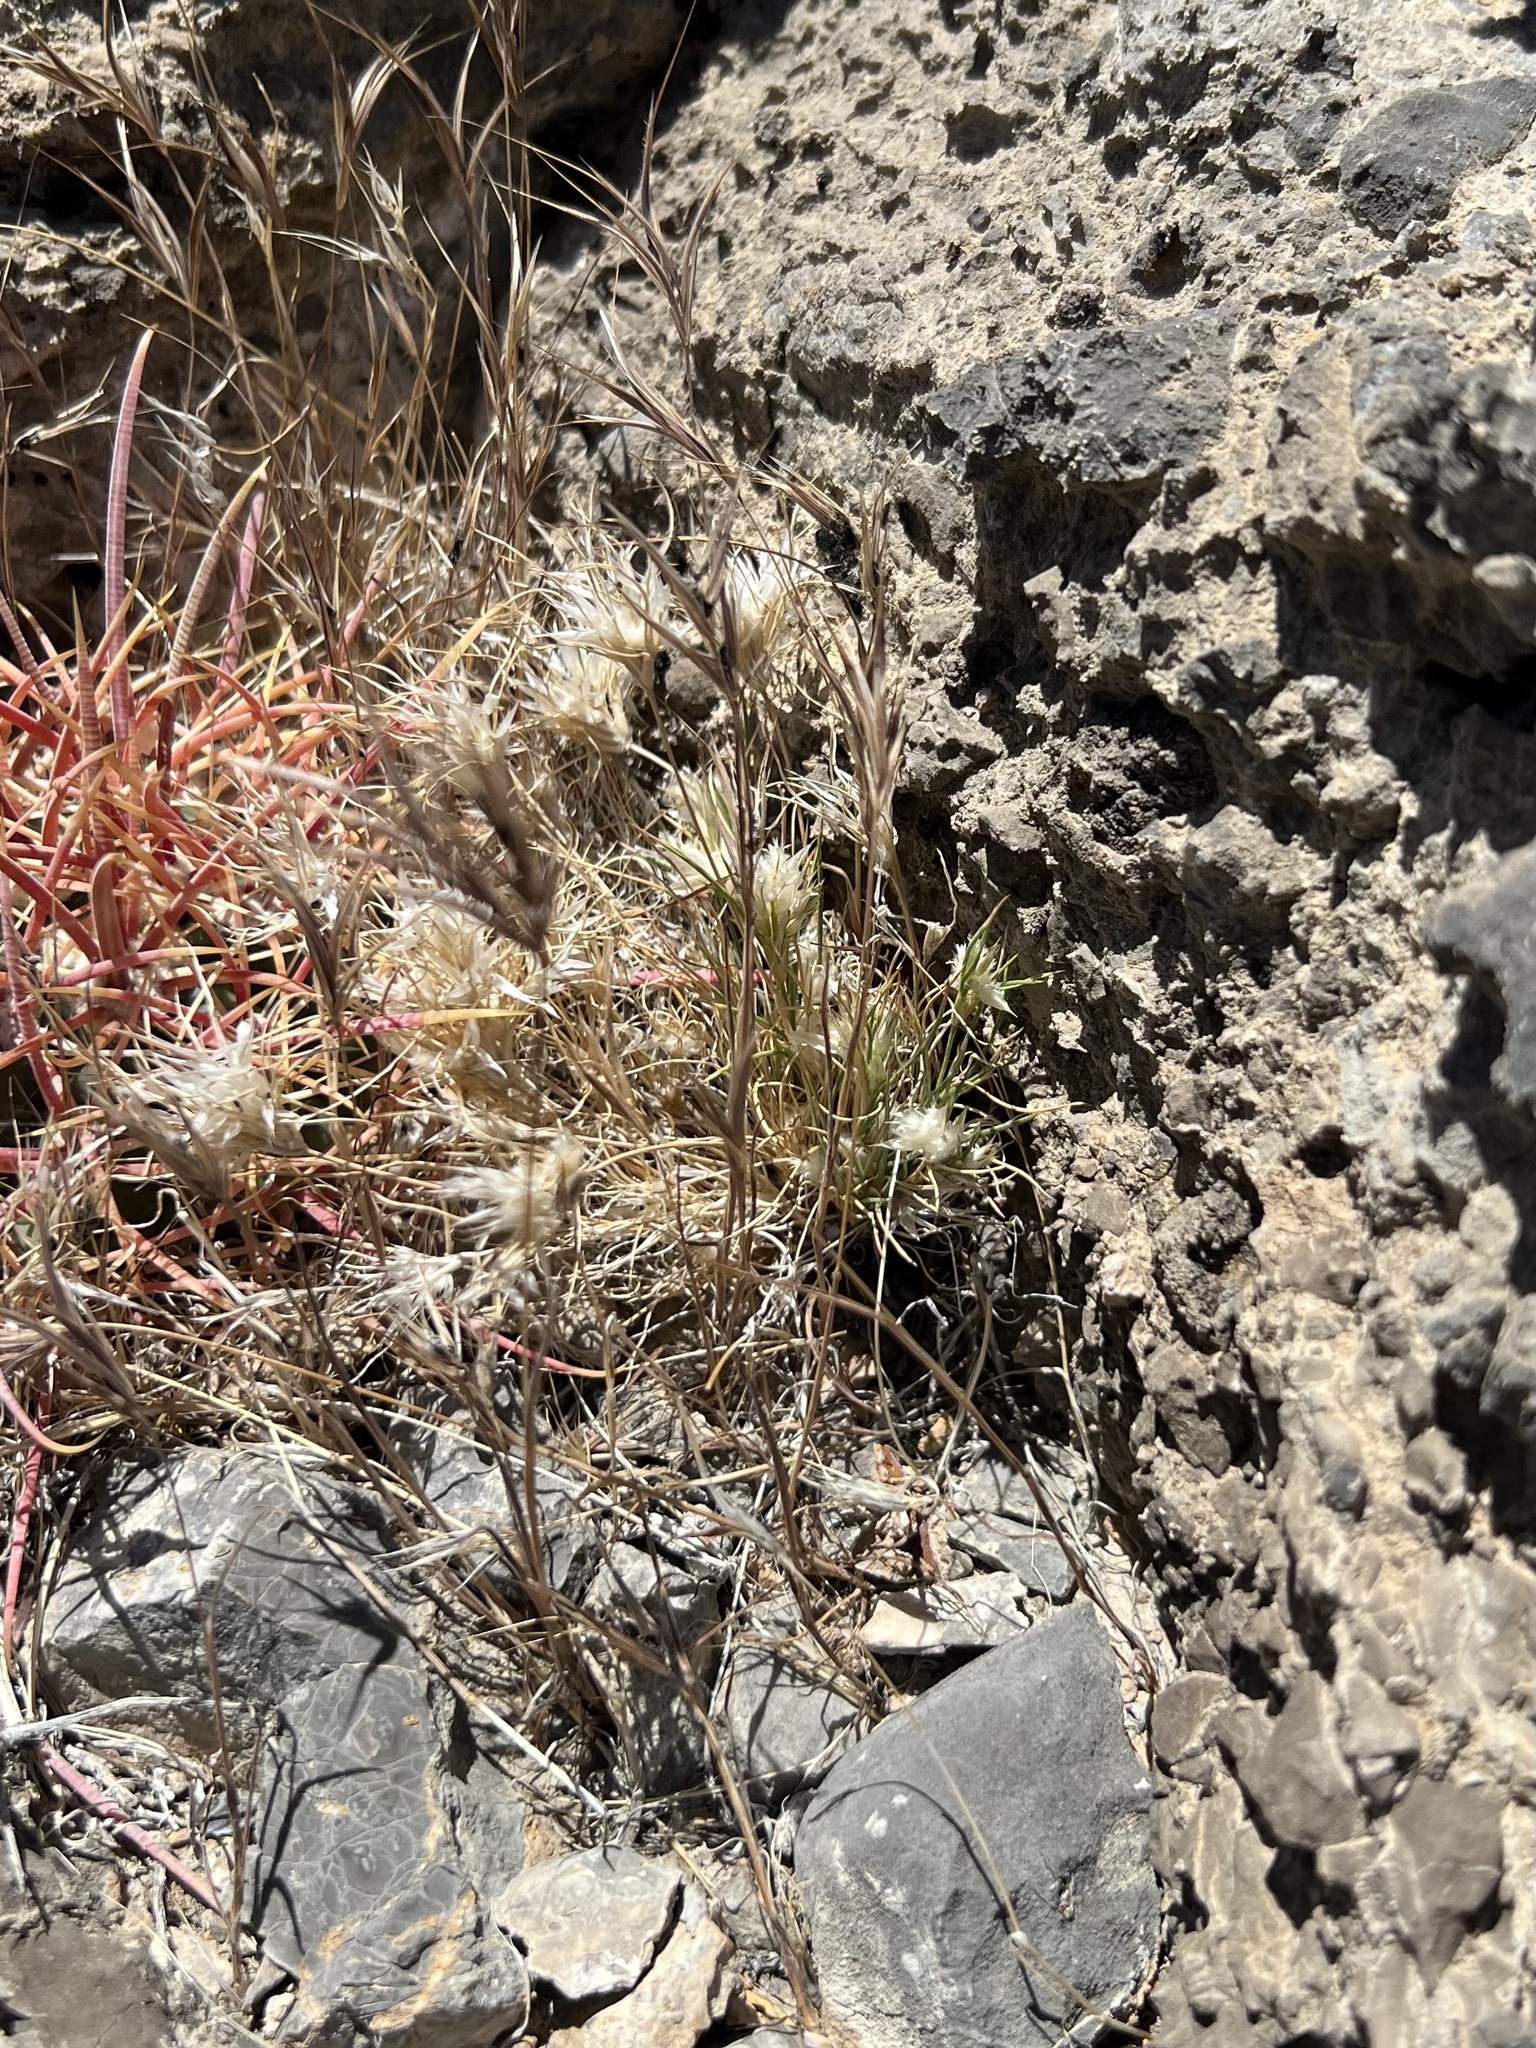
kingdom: Plantae
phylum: Tracheophyta
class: Liliopsida
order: Poales
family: Poaceae
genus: Dasyochloa
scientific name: Dasyochloa pulchella
